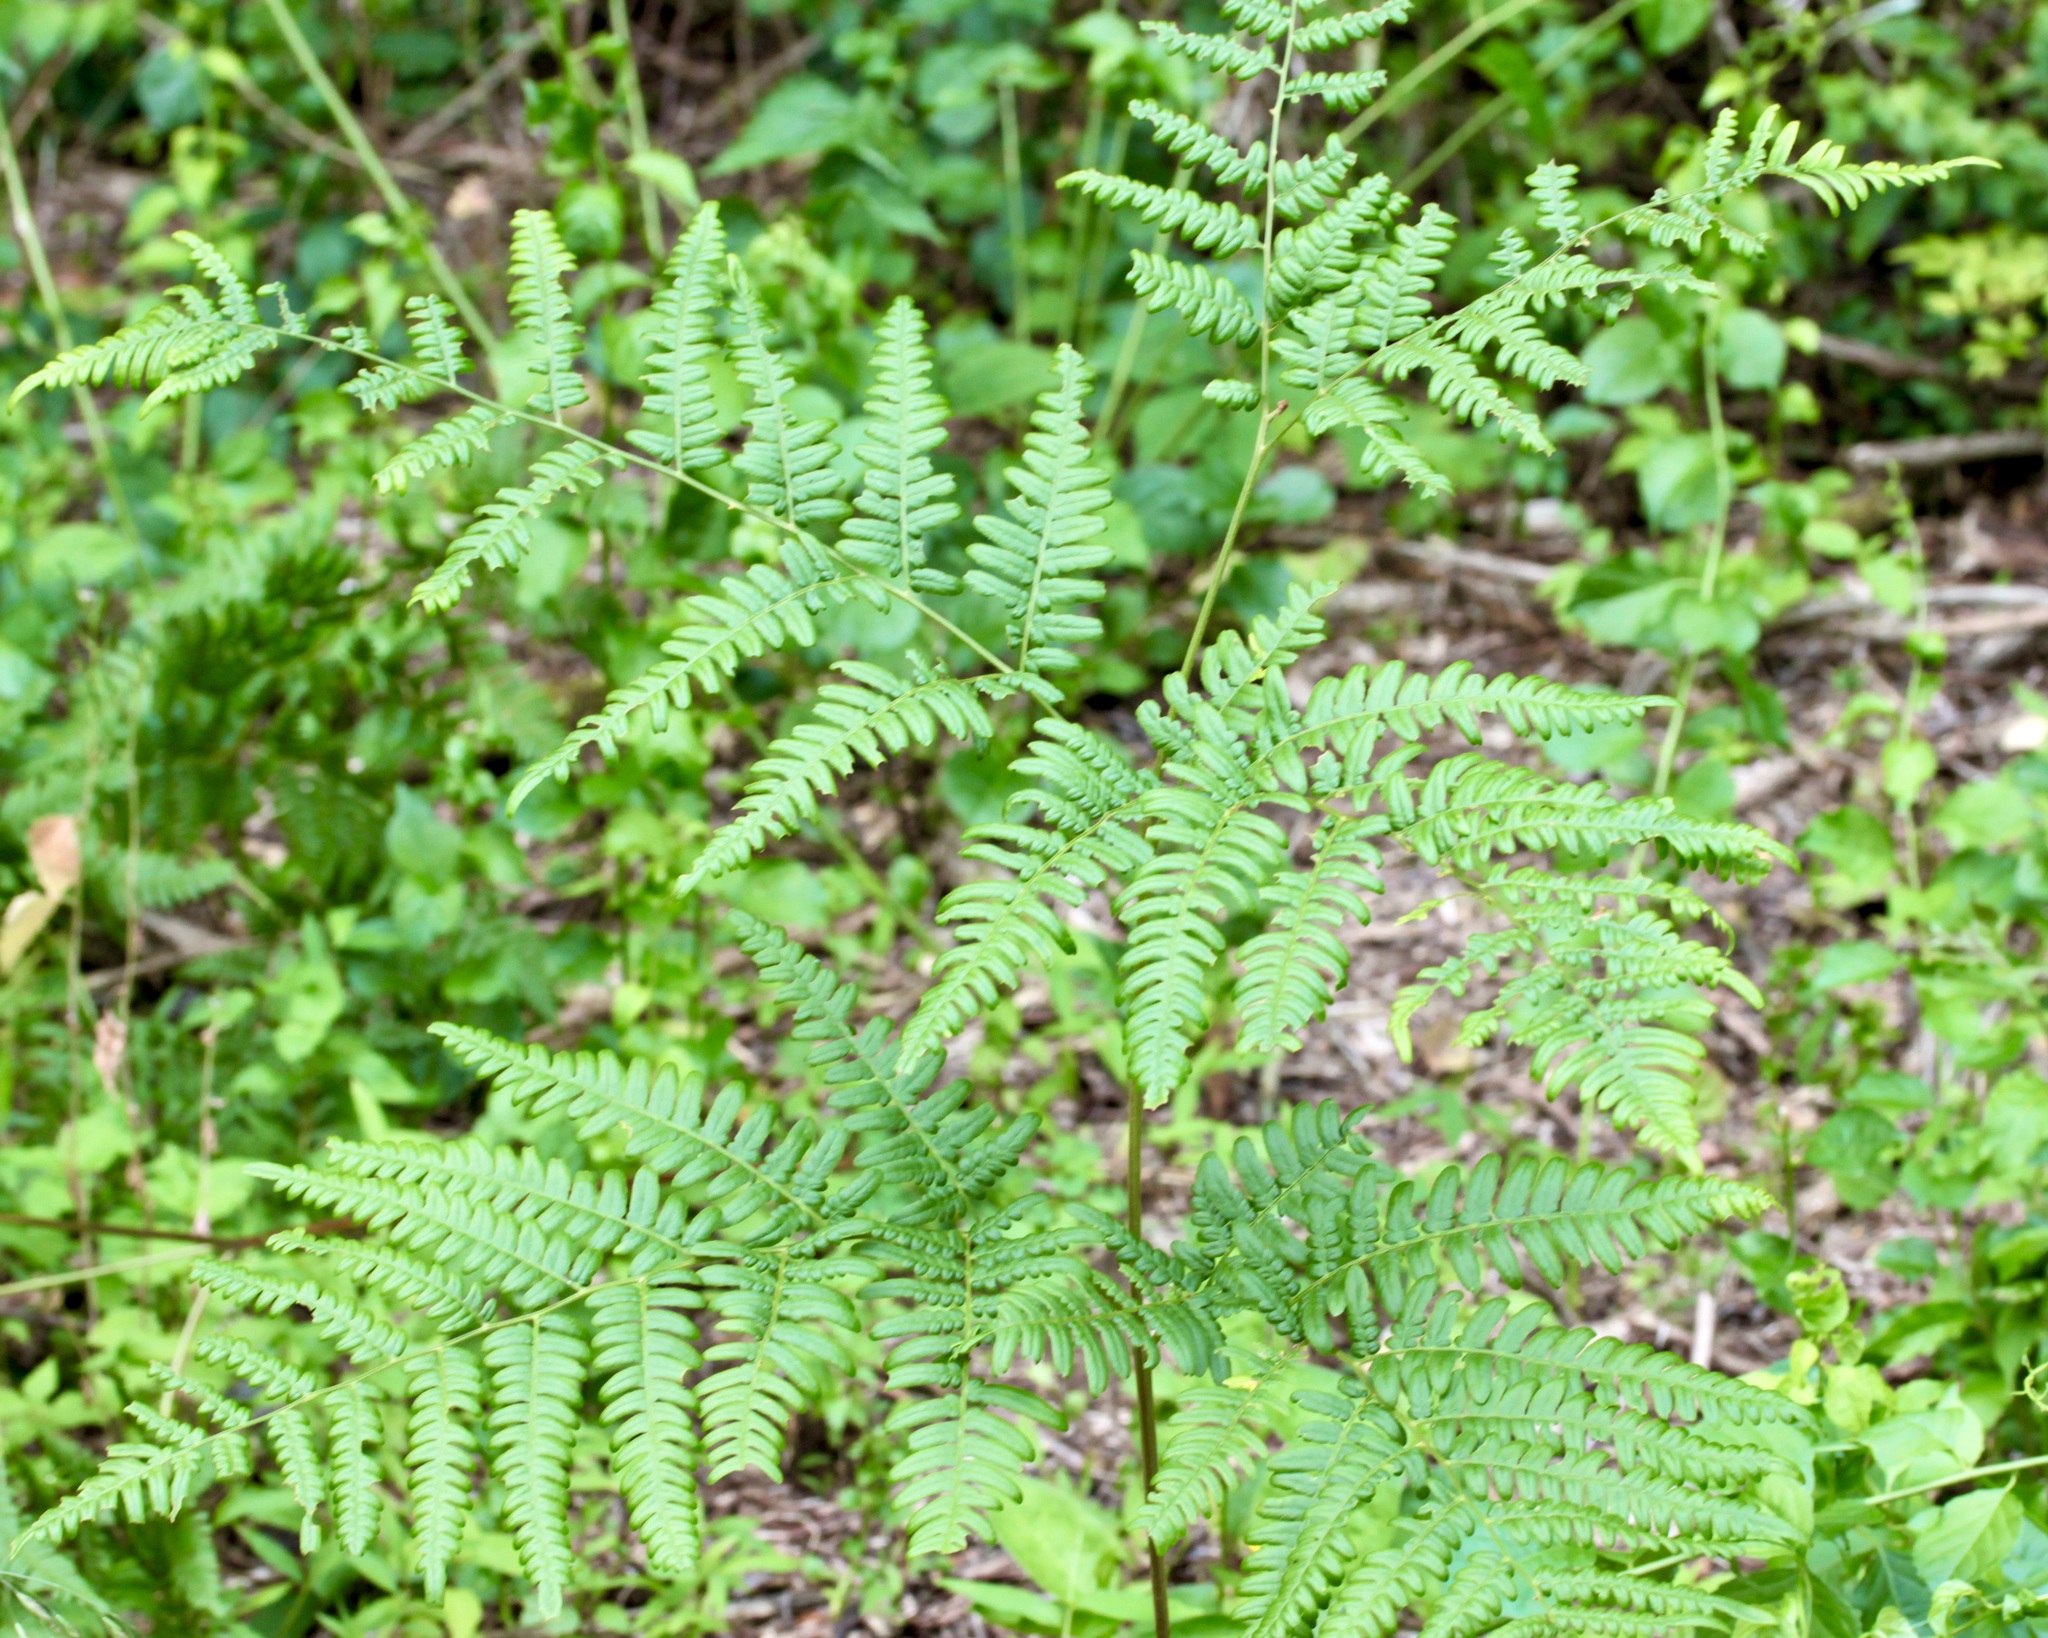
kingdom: Plantae
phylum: Tracheophyta
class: Polypodiopsida
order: Polypodiales
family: Dennstaedtiaceae
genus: Pteridium
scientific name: Pteridium aquilinum
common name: Bracken
